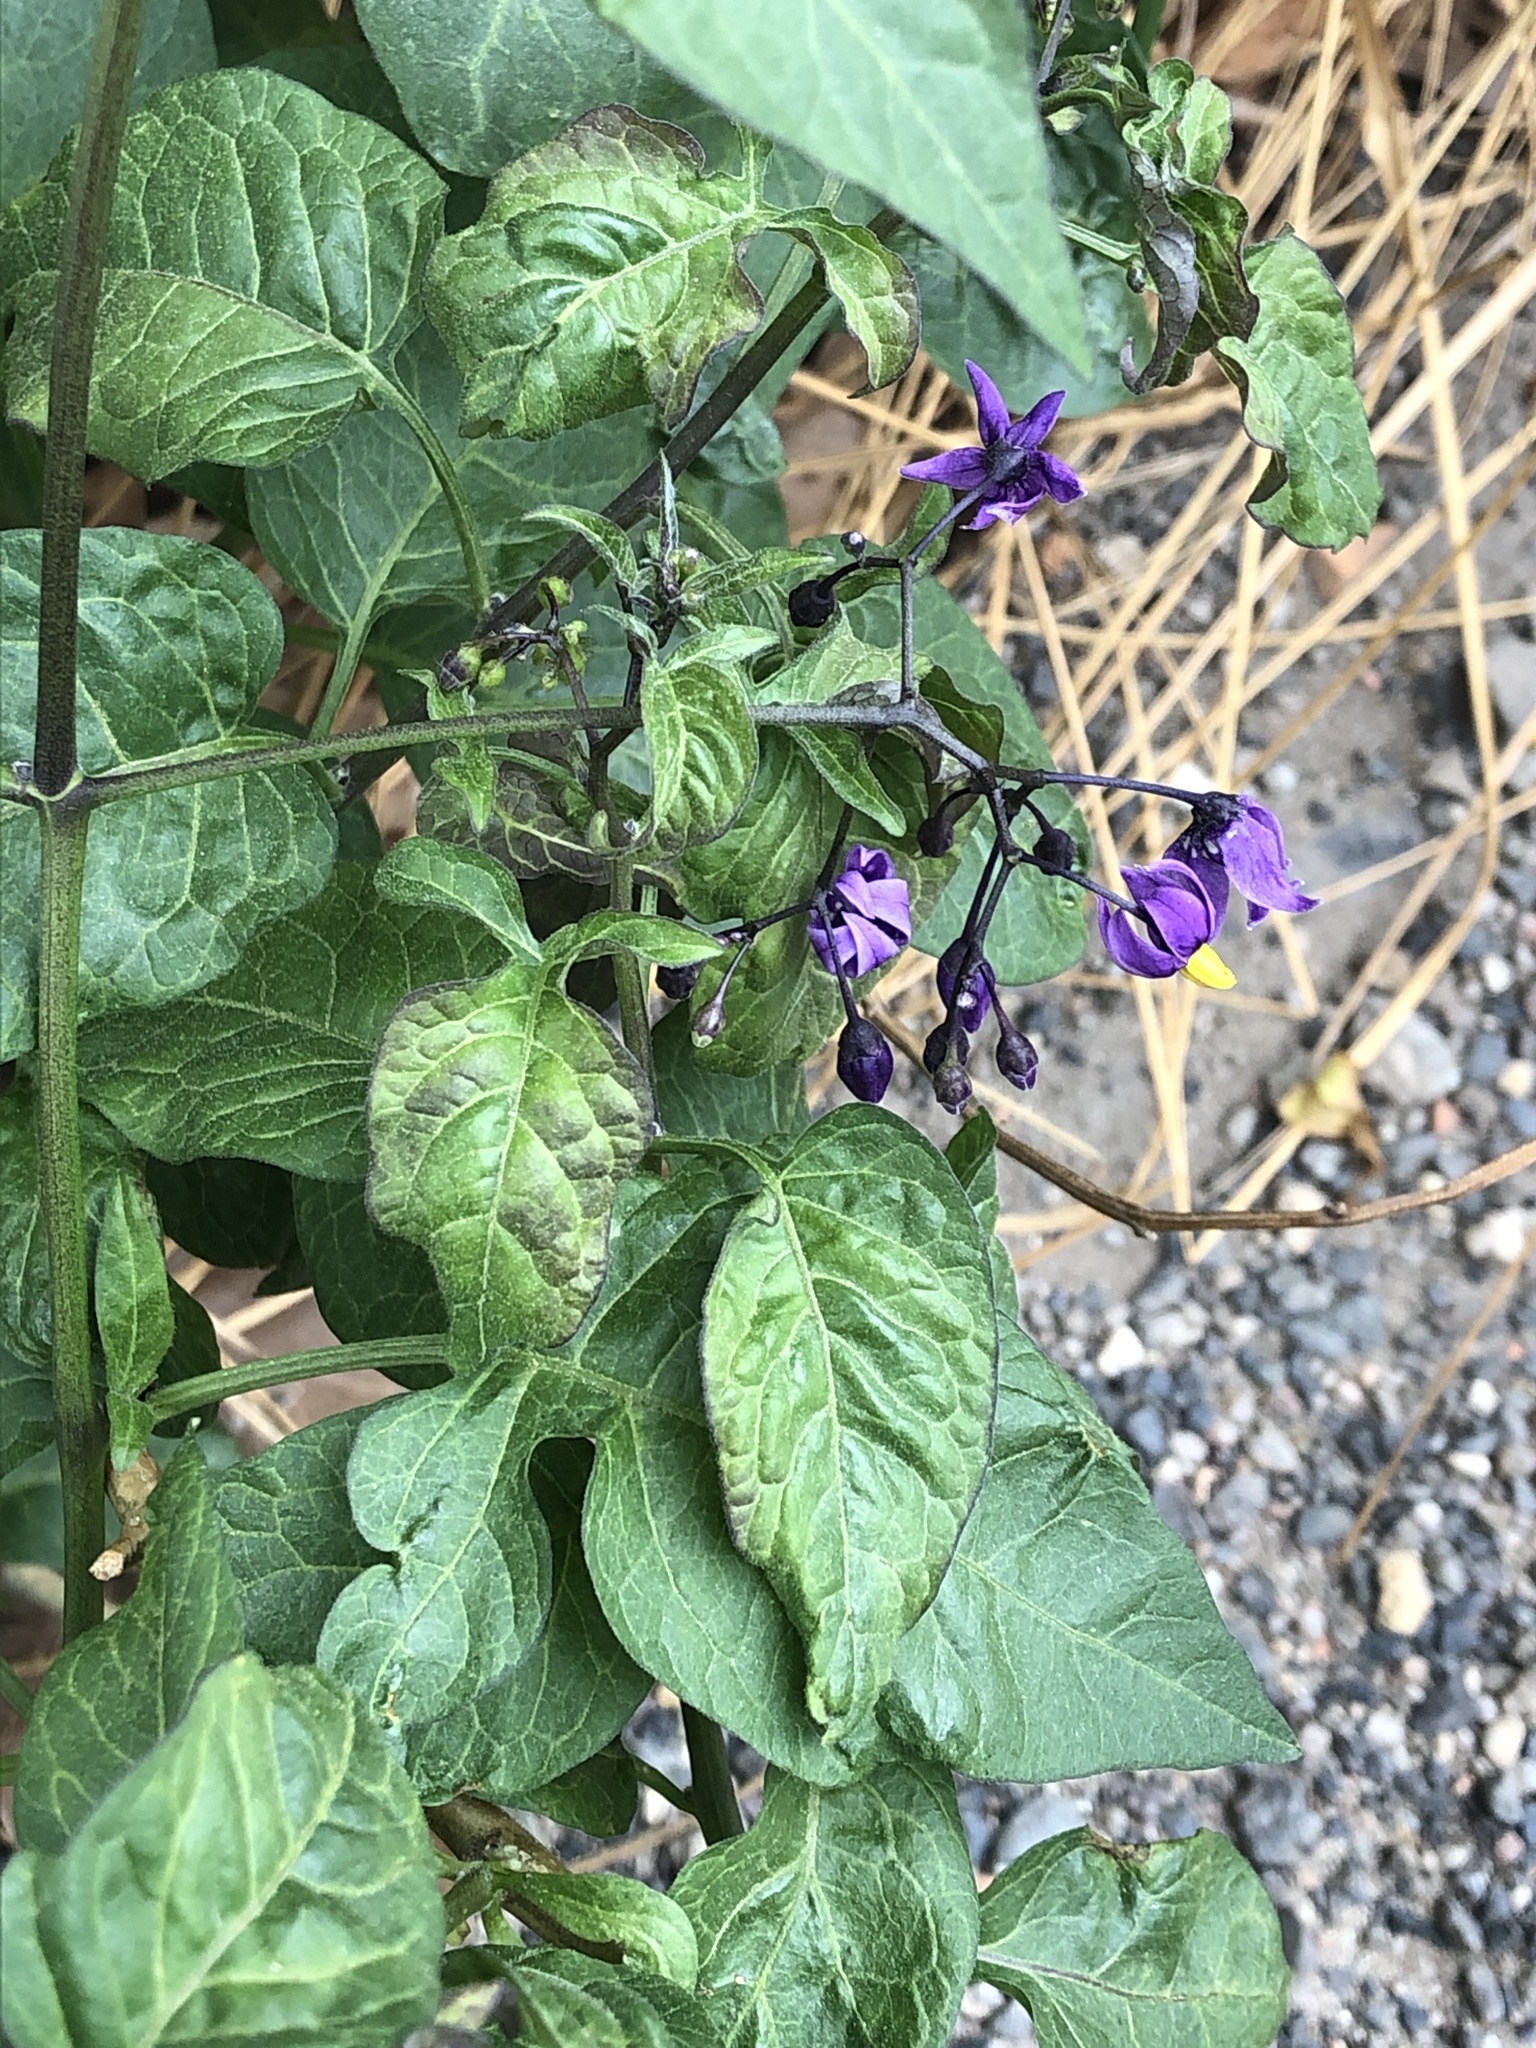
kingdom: Plantae
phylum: Tracheophyta
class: Magnoliopsida
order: Solanales
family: Solanaceae
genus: Solanum
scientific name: Solanum dulcamara
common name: Climbing nightshade
